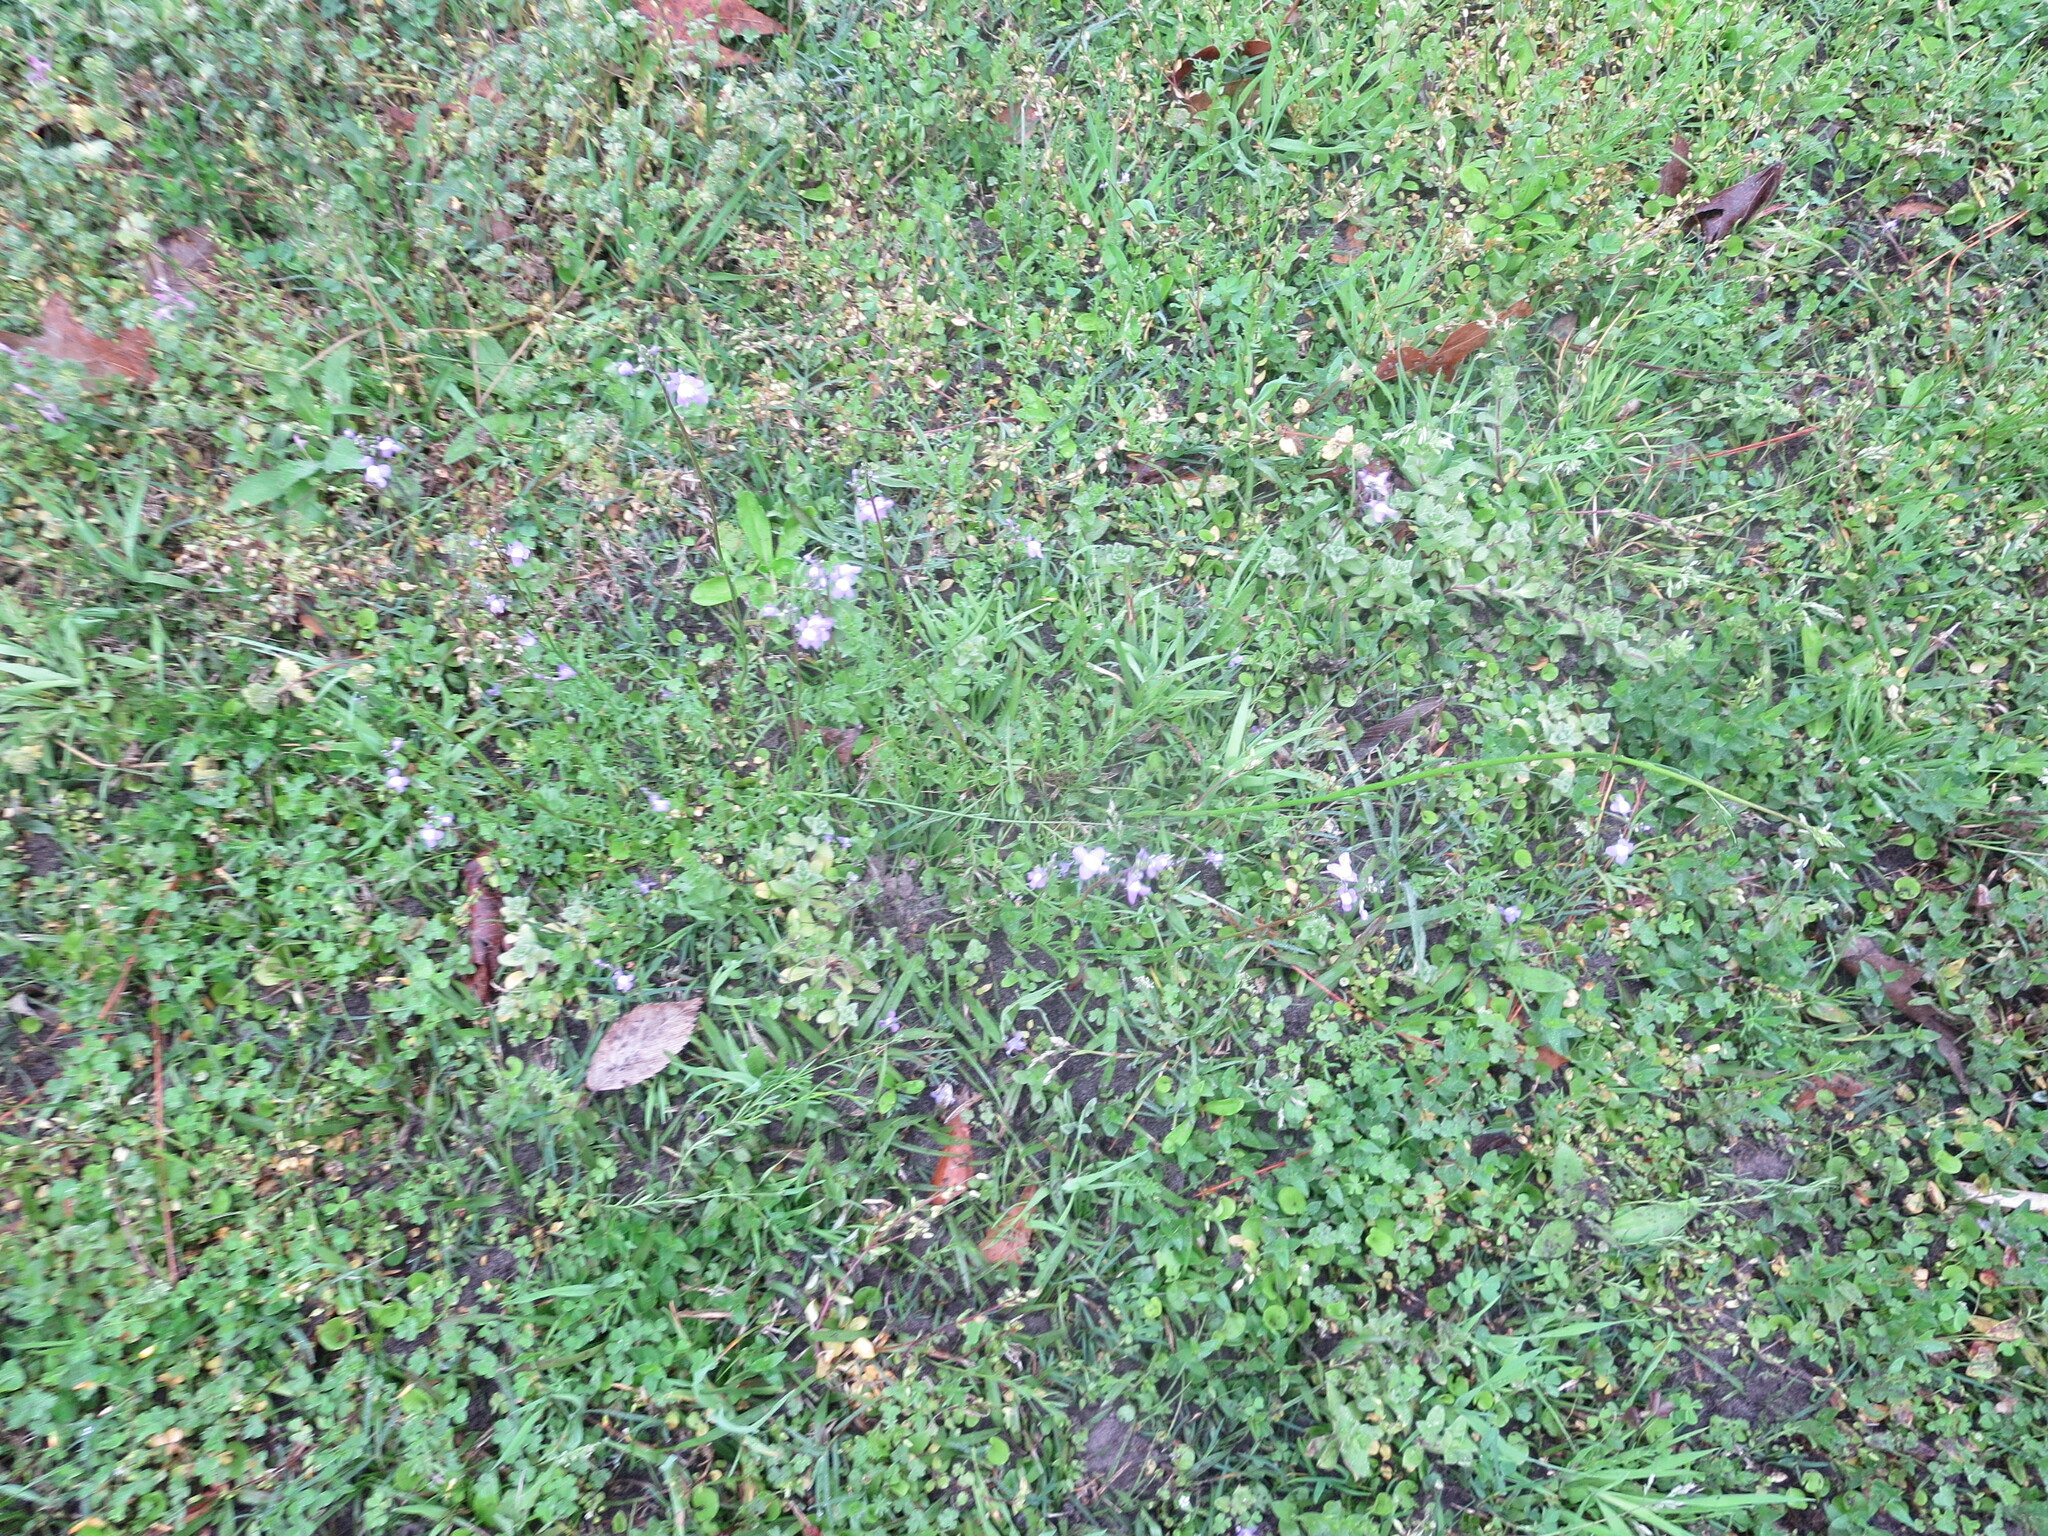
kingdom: Plantae
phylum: Tracheophyta
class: Magnoliopsida
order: Lamiales
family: Plantaginaceae
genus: Nuttallanthus
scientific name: Nuttallanthus canadensis
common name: Blue toadflax
